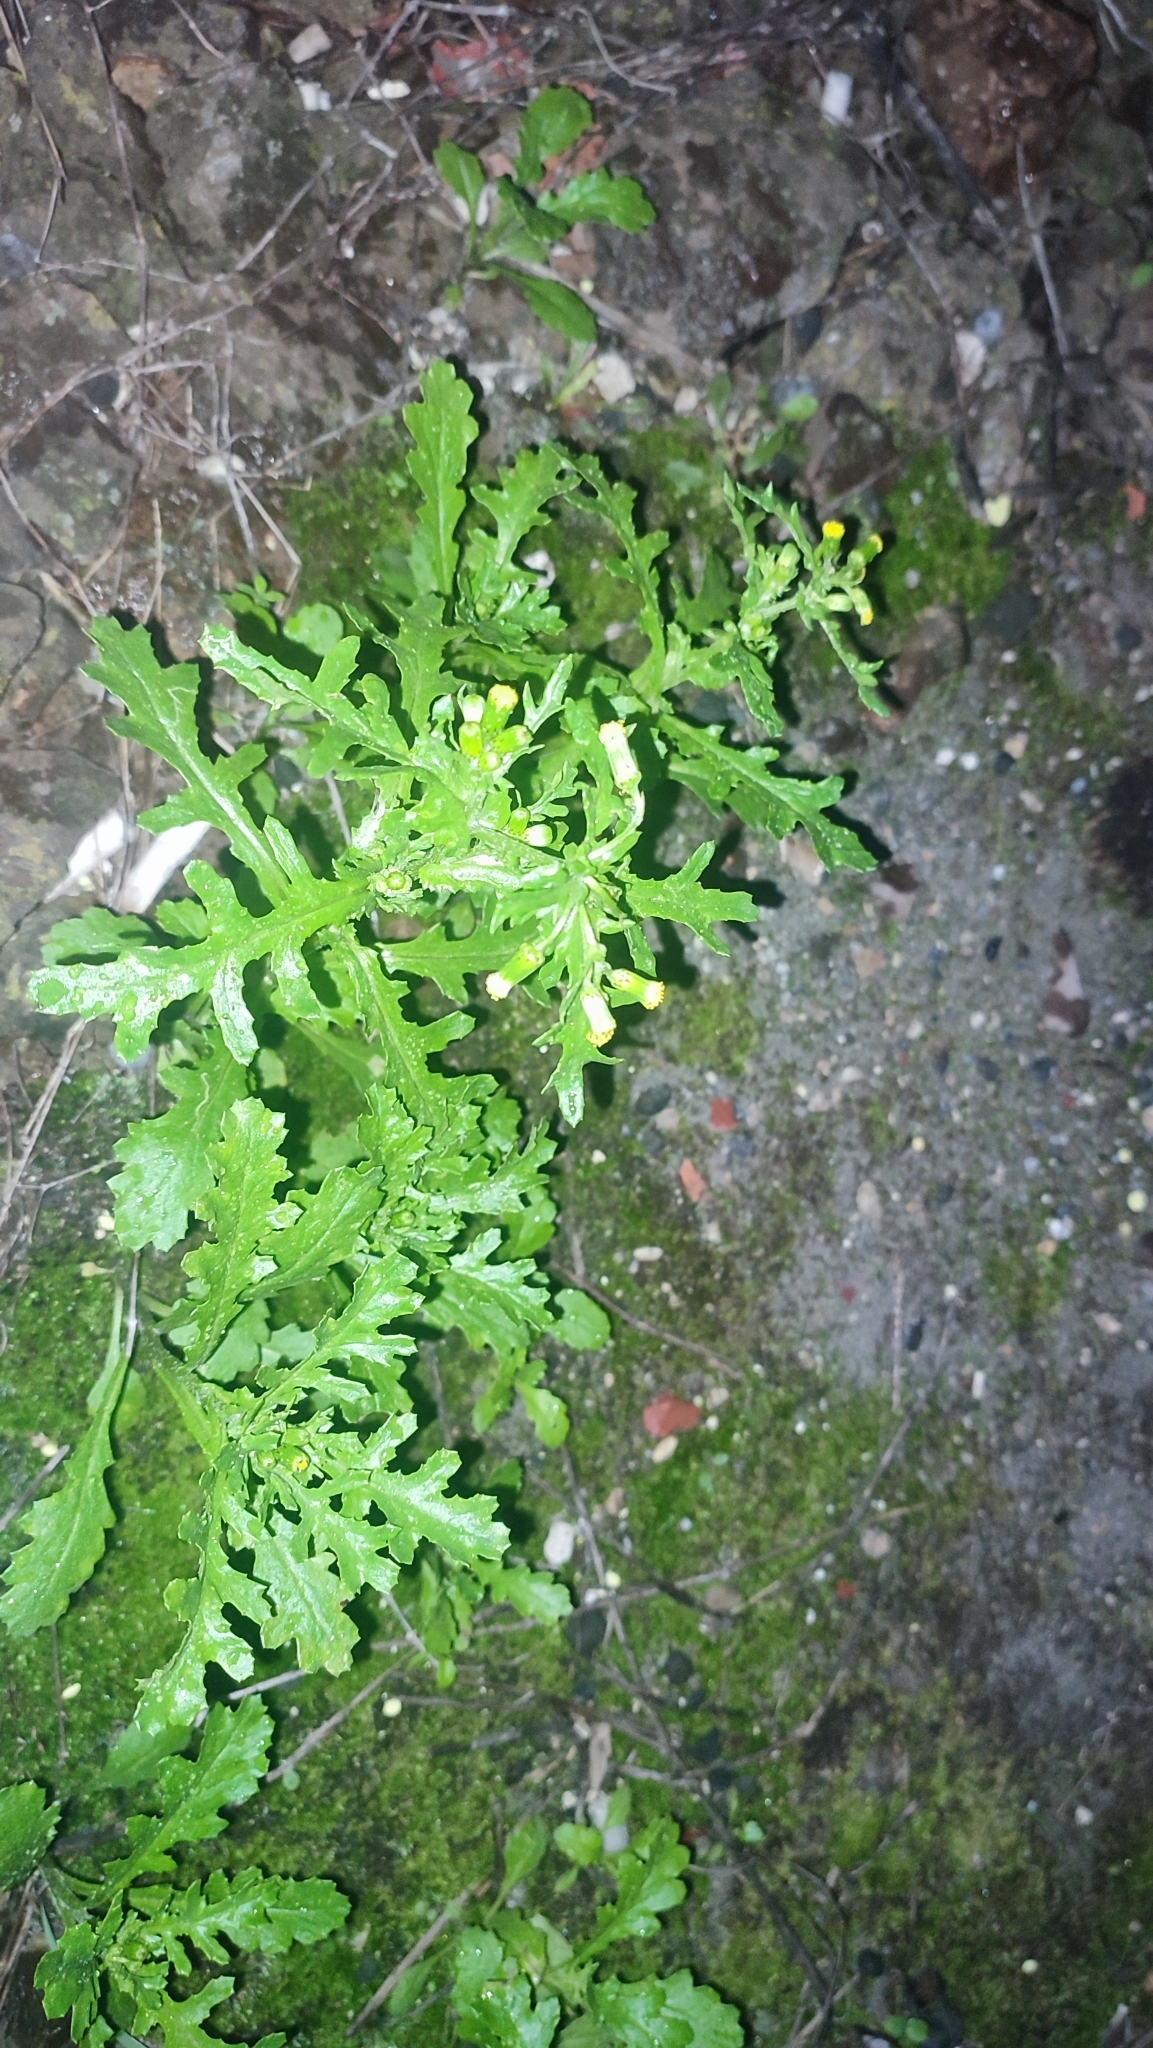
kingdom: Plantae
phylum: Tracheophyta
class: Magnoliopsida
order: Asterales
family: Asteraceae
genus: Senecio
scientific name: Senecio vulgaris
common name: Old-man-in-the-spring
